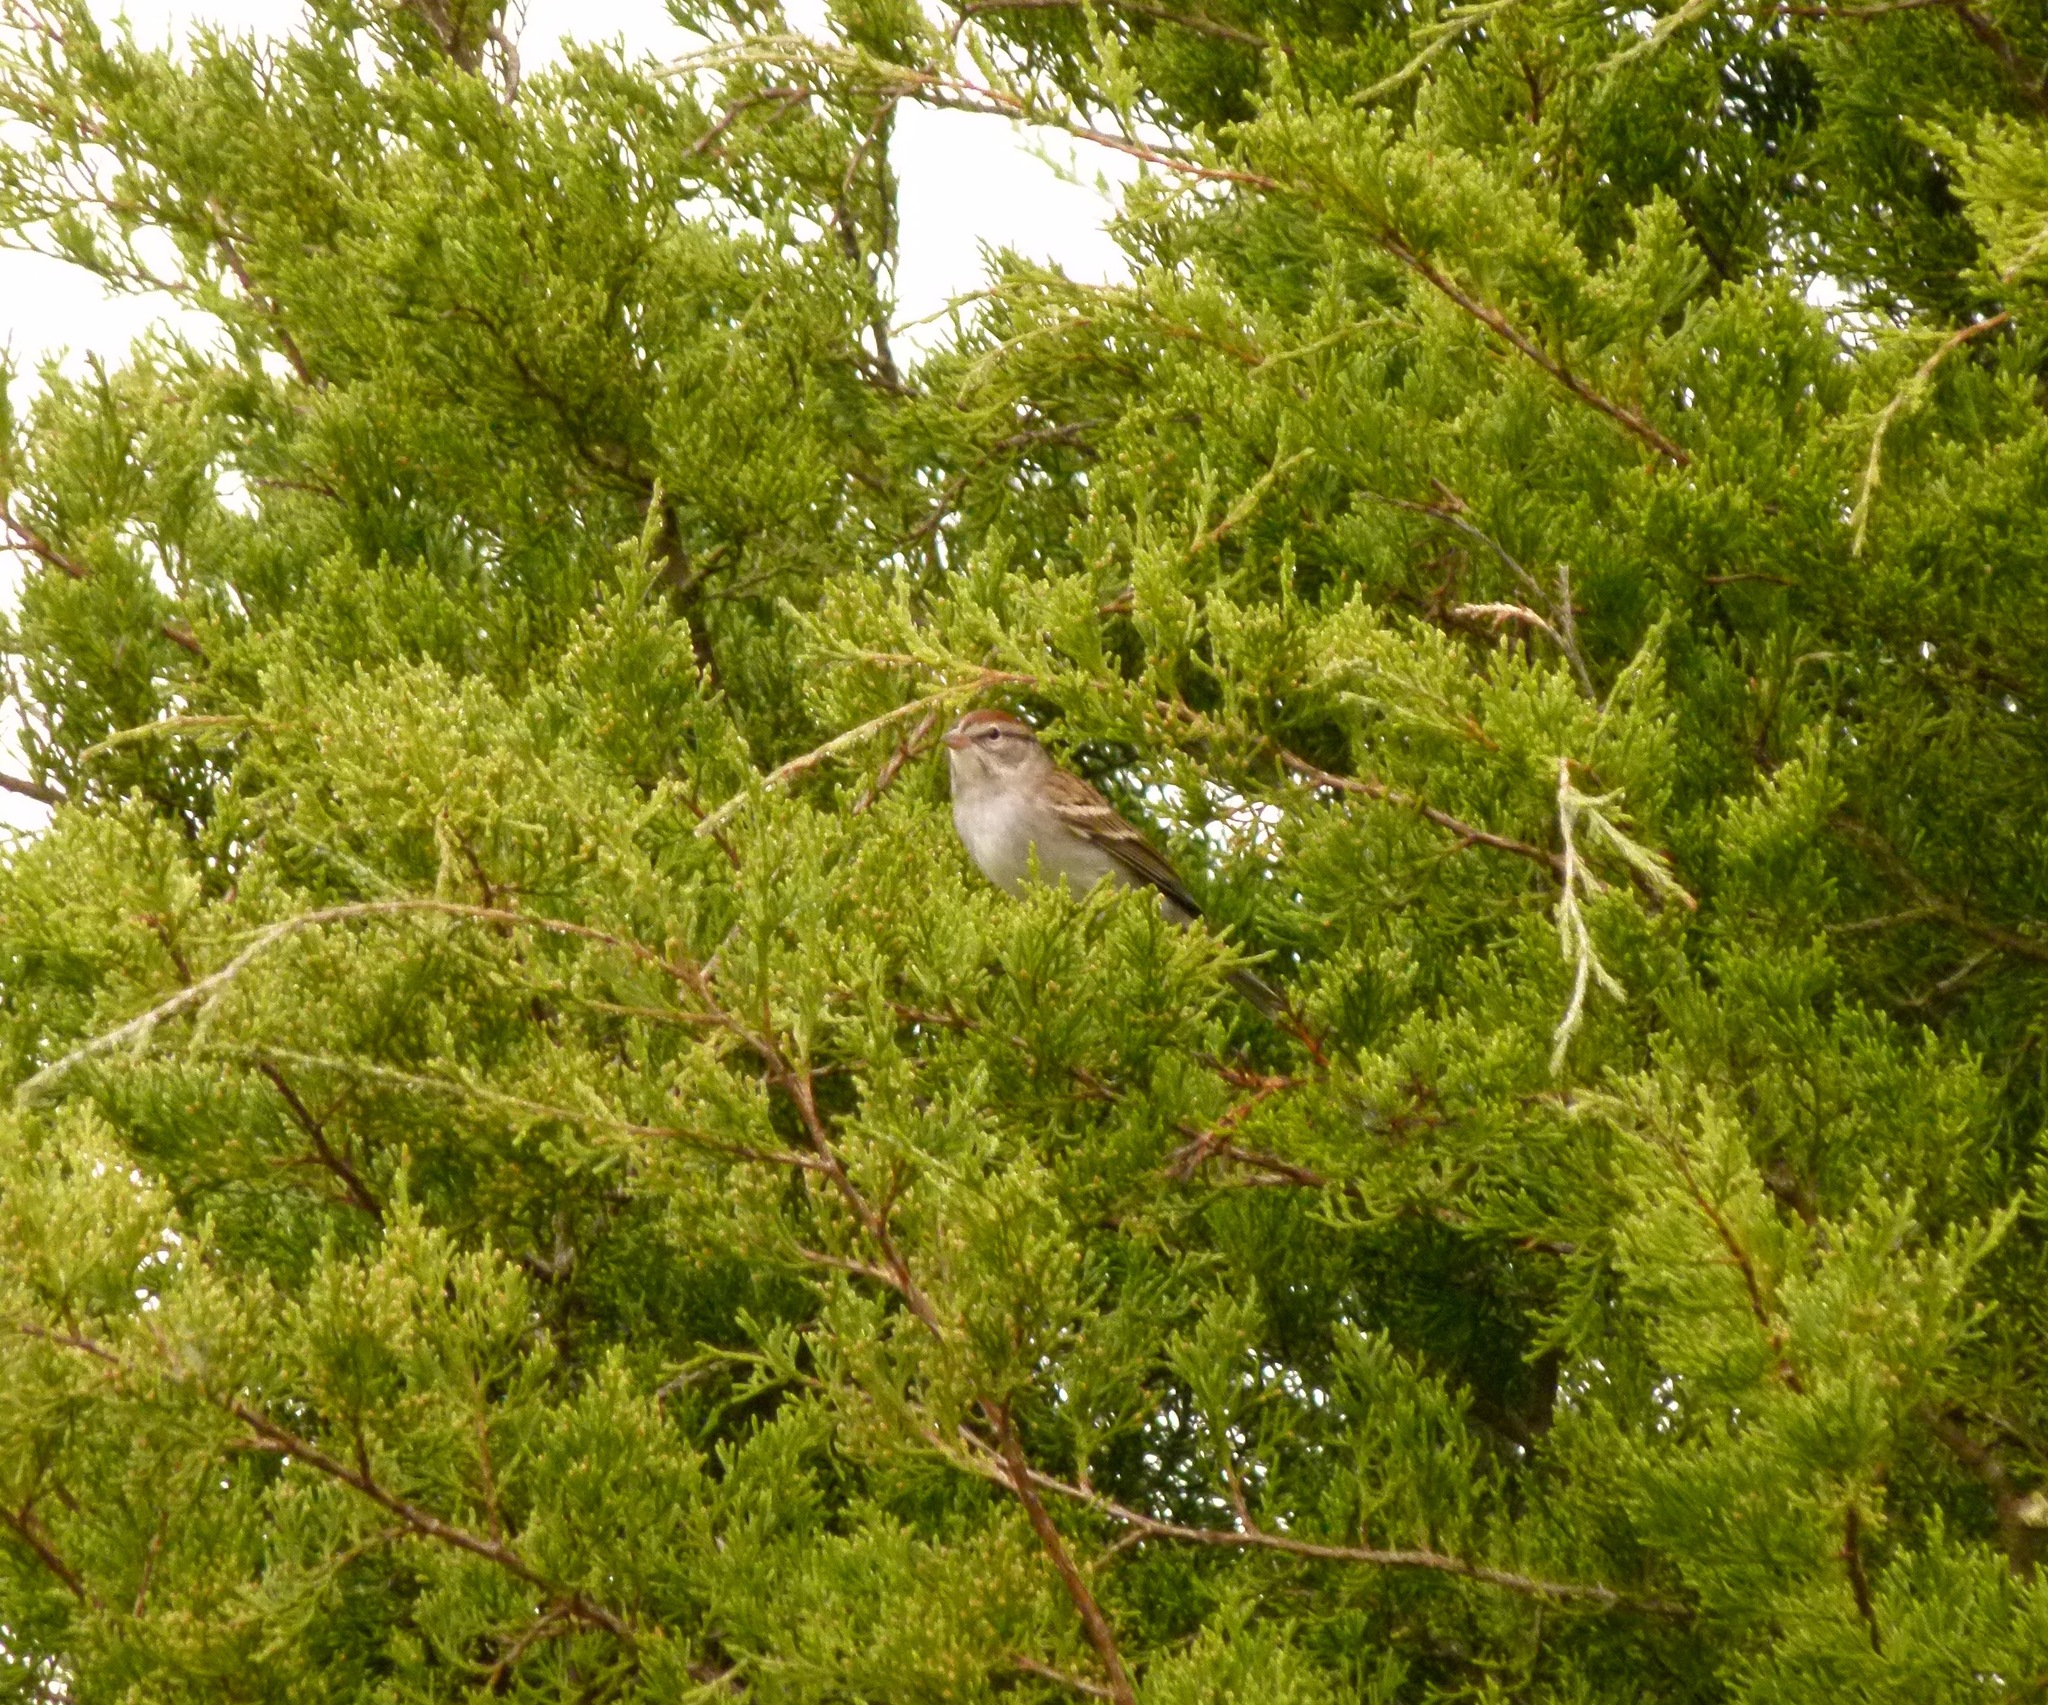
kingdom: Animalia
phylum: Chordata
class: Aves
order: Passeriformes
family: Passerellidae
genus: Spizella
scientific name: Spizella passerina
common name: Chipping sparrow
